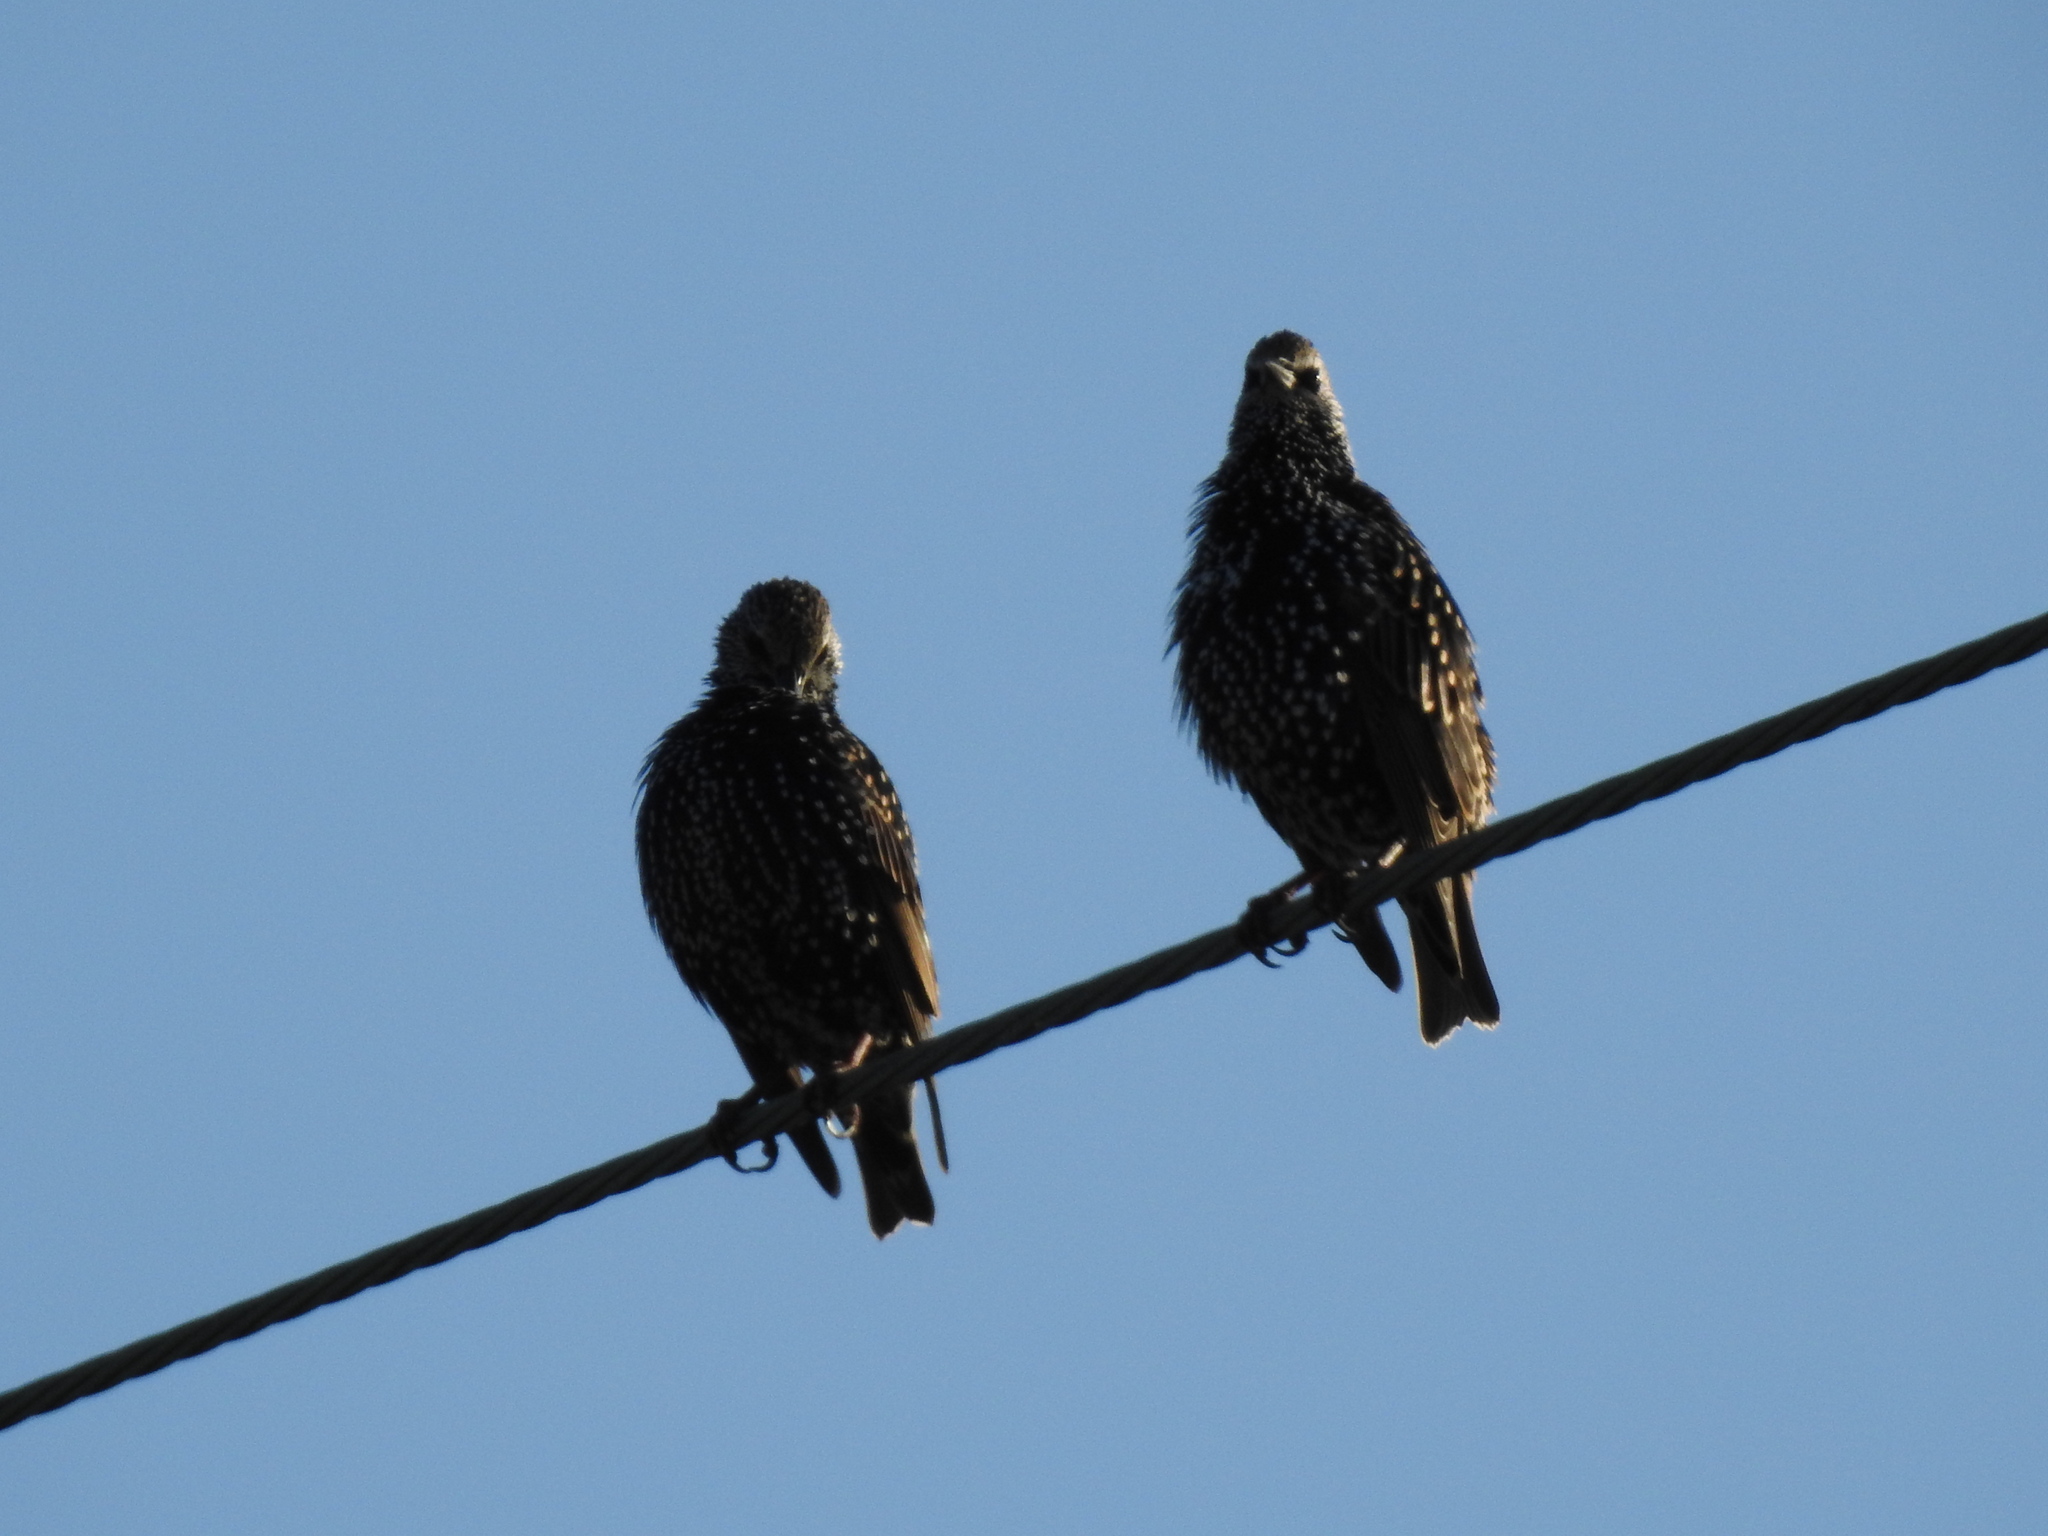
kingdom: Animalia
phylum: Chordata
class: Aves
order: Passeriformes
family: Sturnidae
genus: Sturnus
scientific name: Sturnus vulgaris
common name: Common starling
